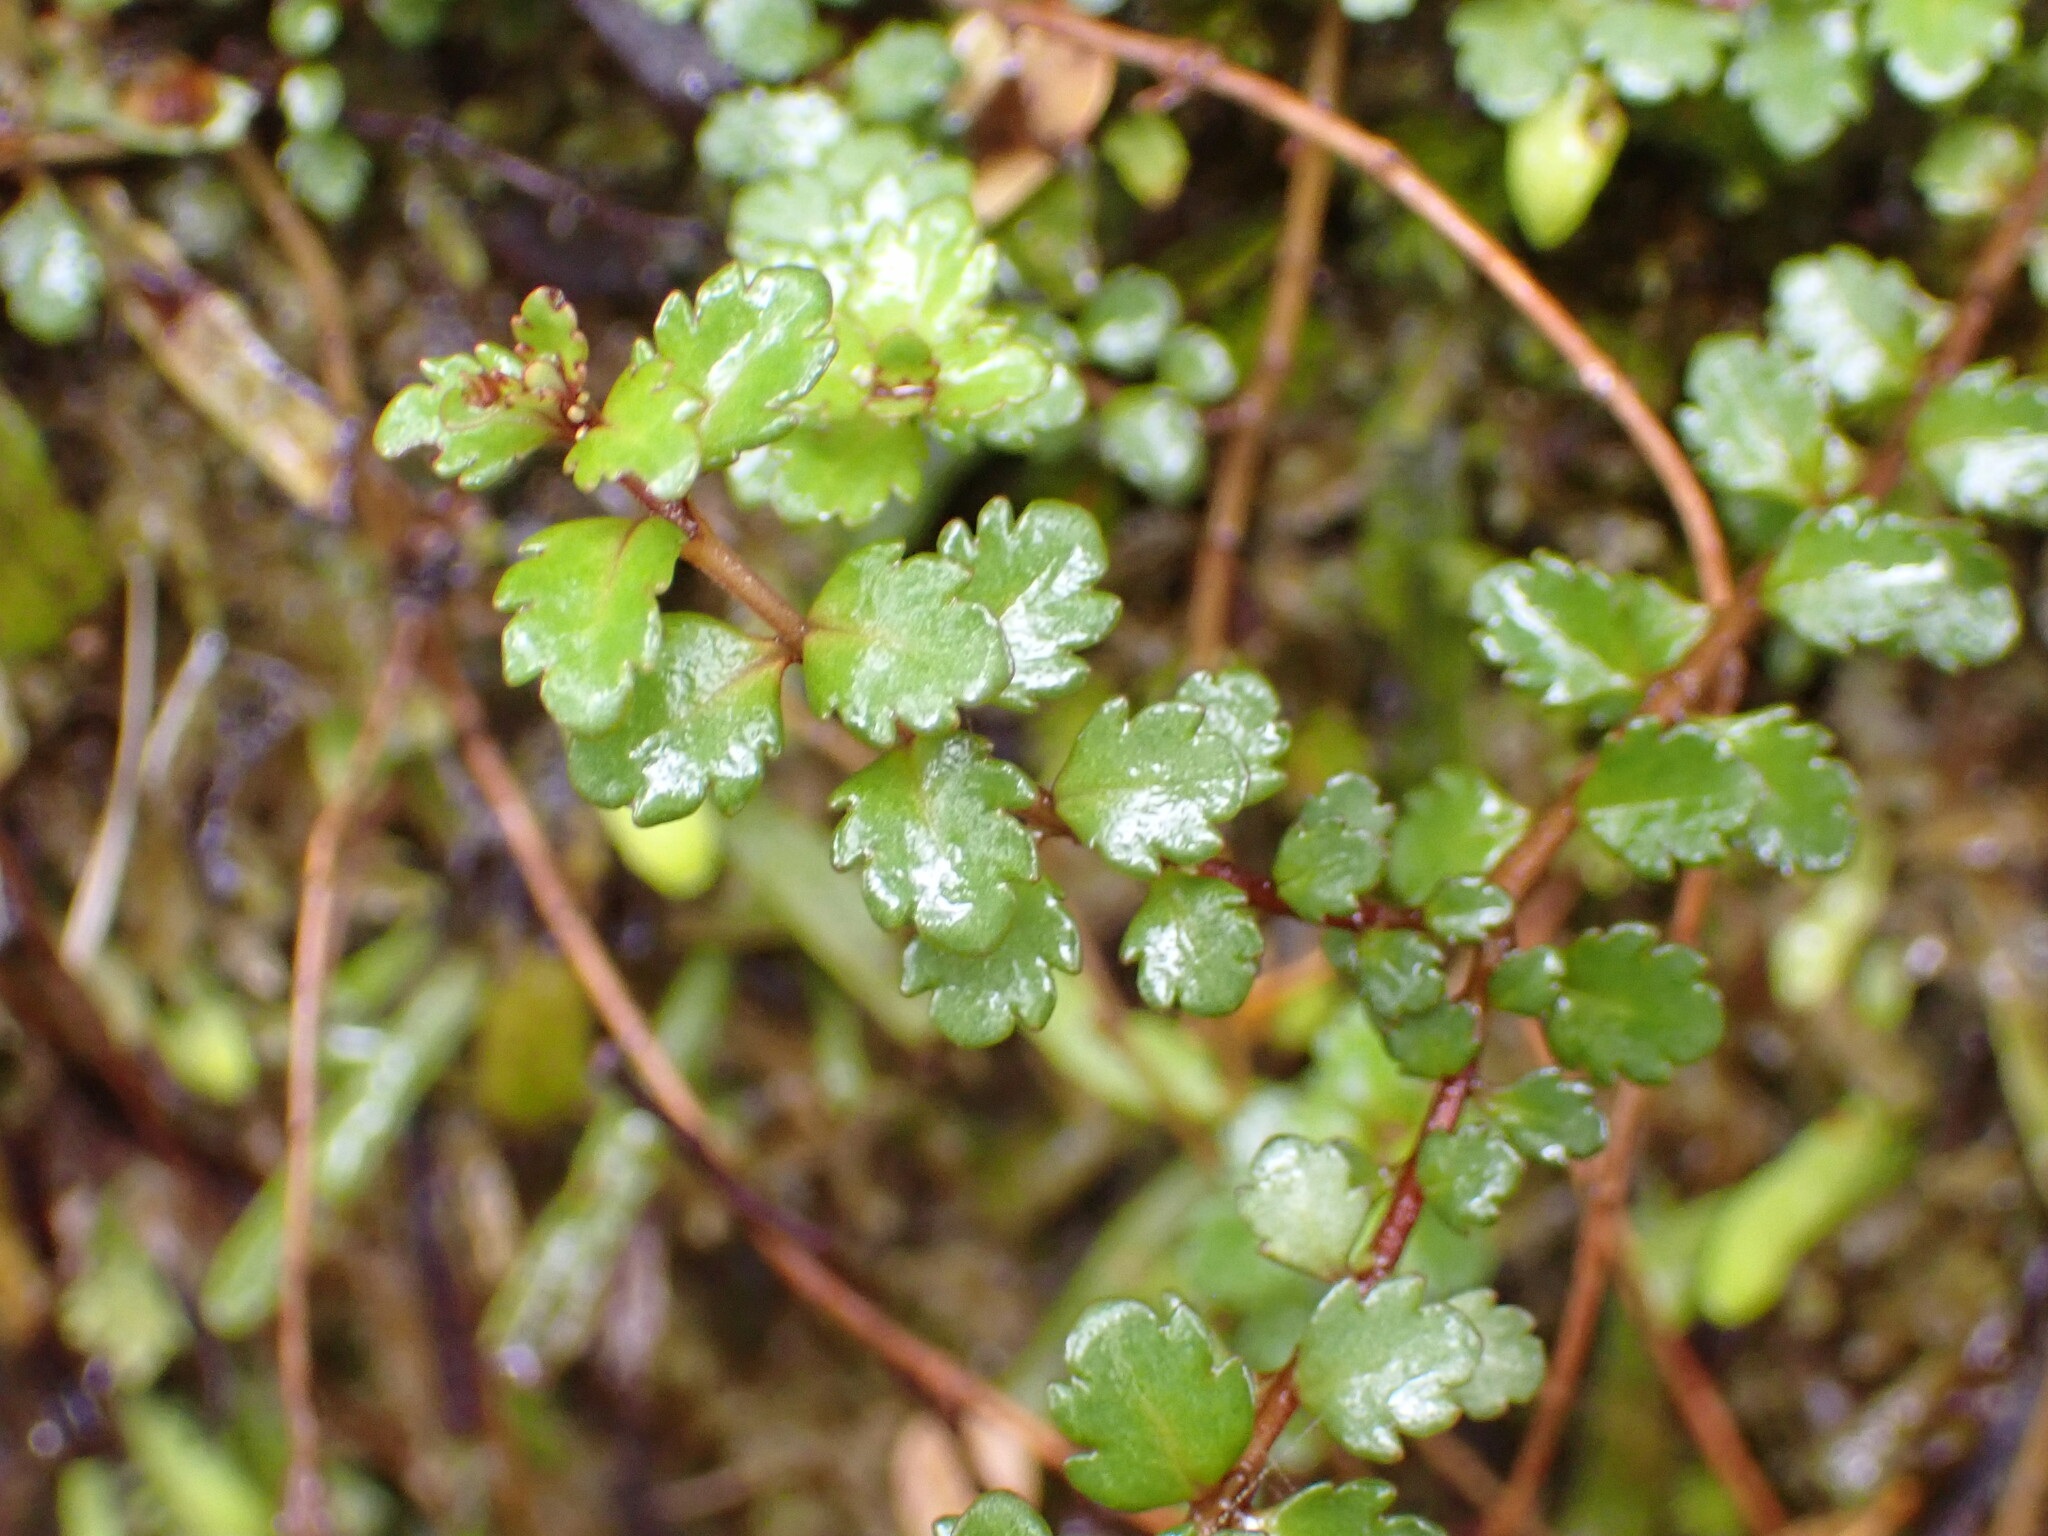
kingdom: Plantae
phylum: Tracheophyta
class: Magnoliopsida
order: Lamiales
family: Plantaginaceae
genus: Veronica
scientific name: Veronica lyallii
